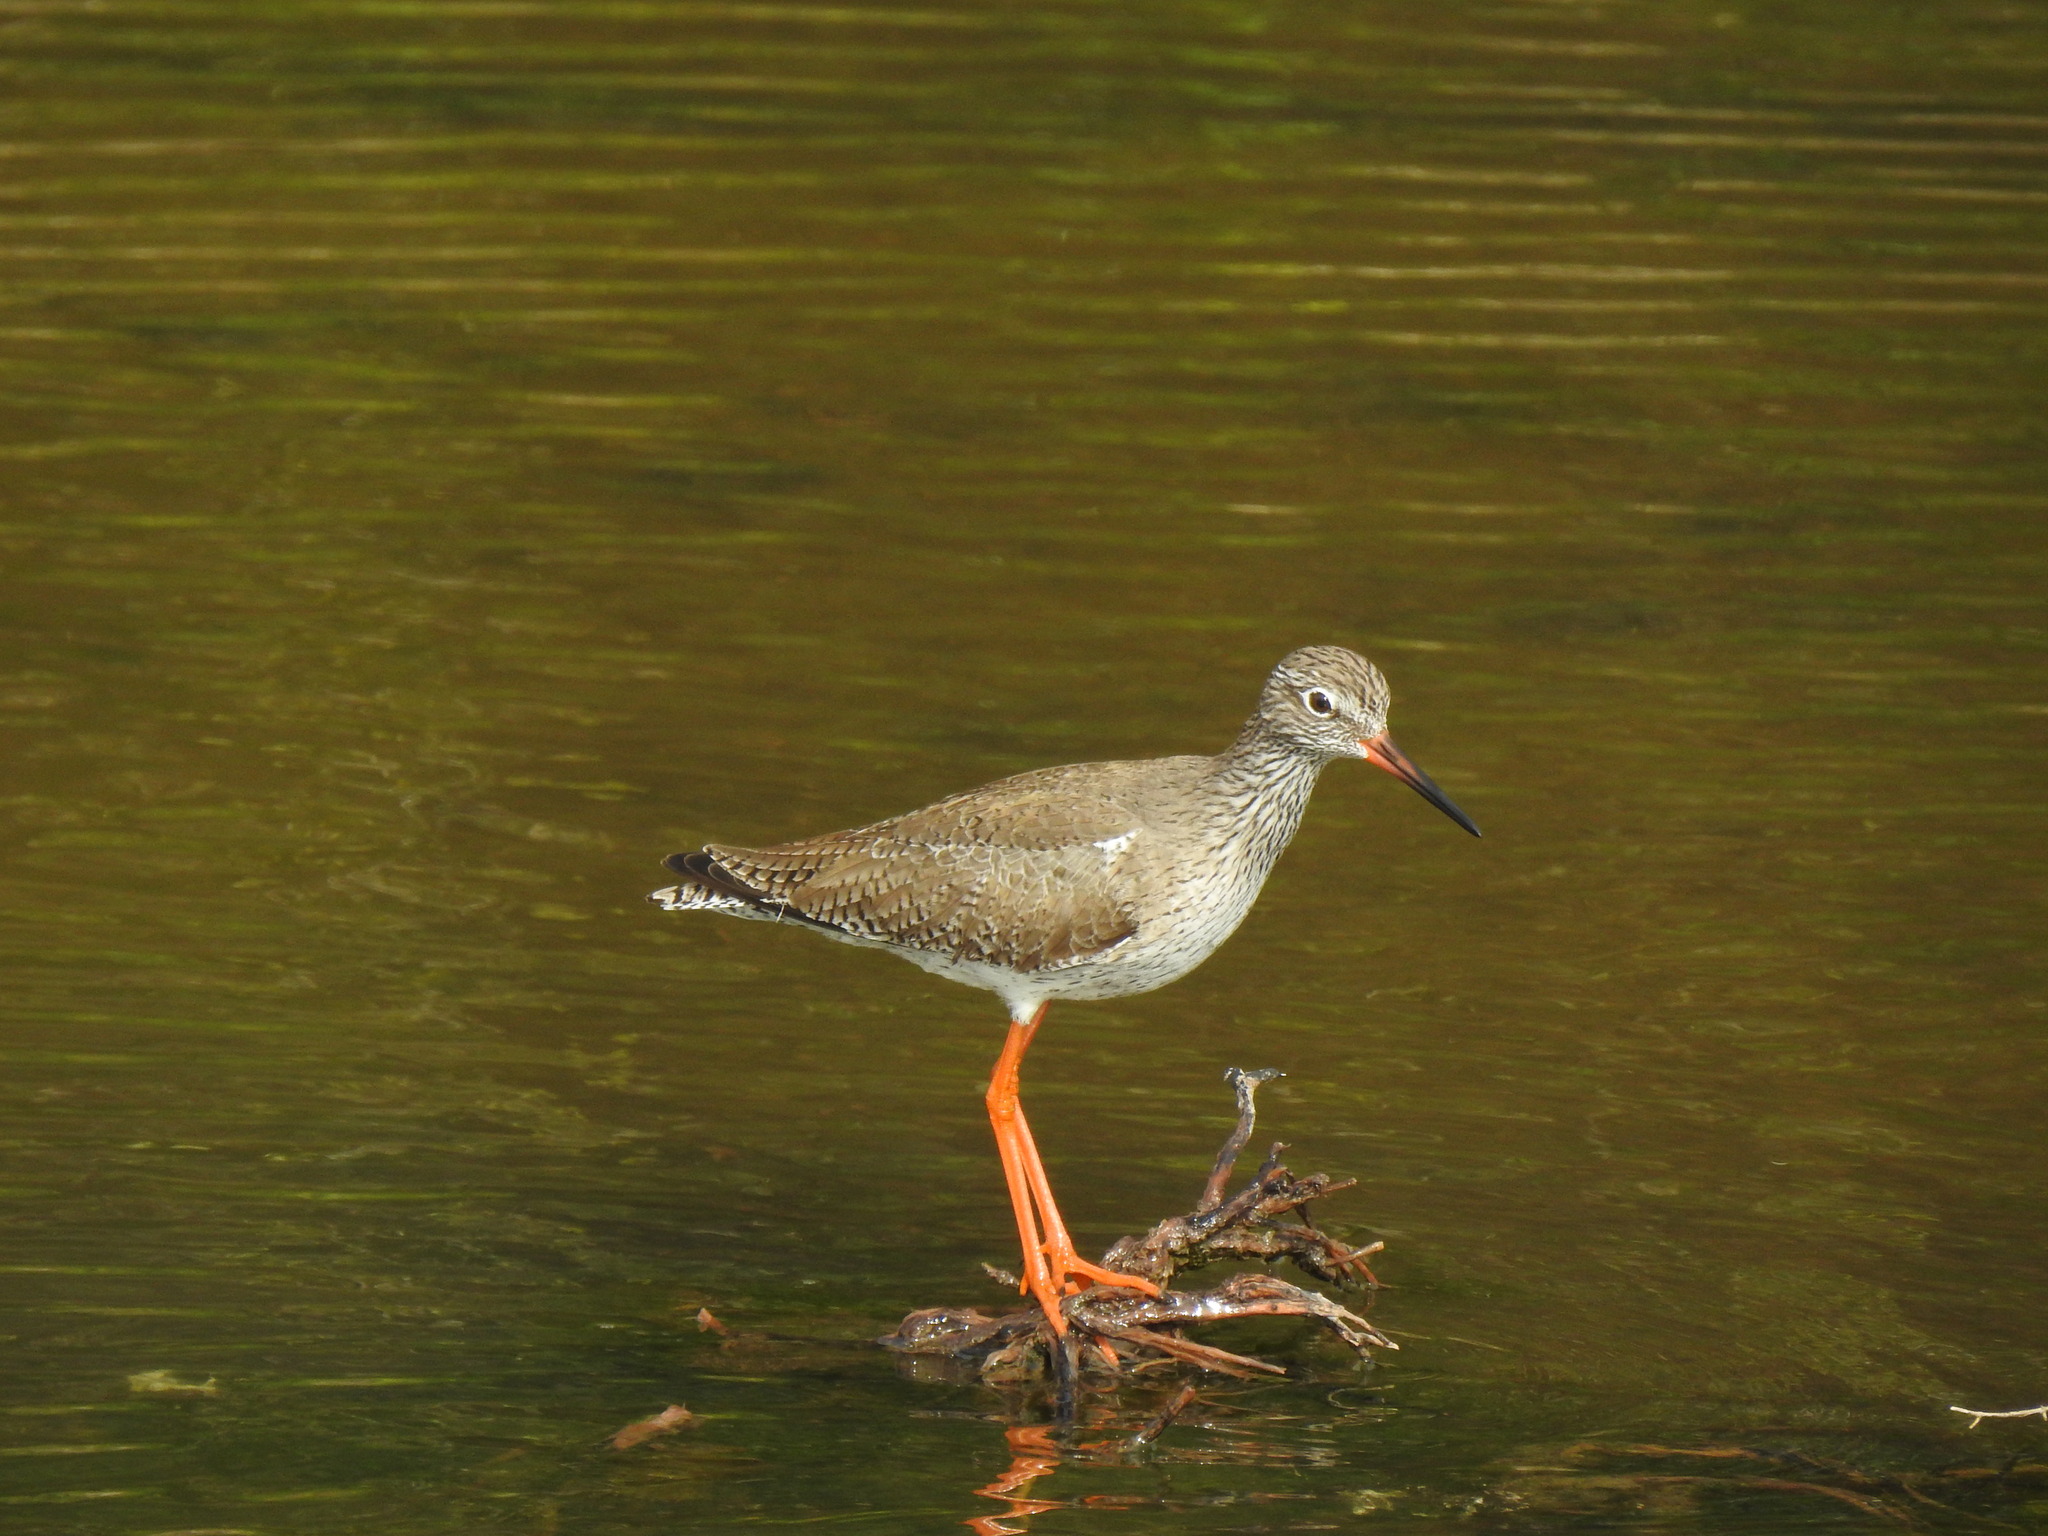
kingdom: Animalia
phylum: Chordata
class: Aves
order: Charadriiformes
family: Scolopacidae
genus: Tringa
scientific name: Tringa totanus
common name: Common redshank
